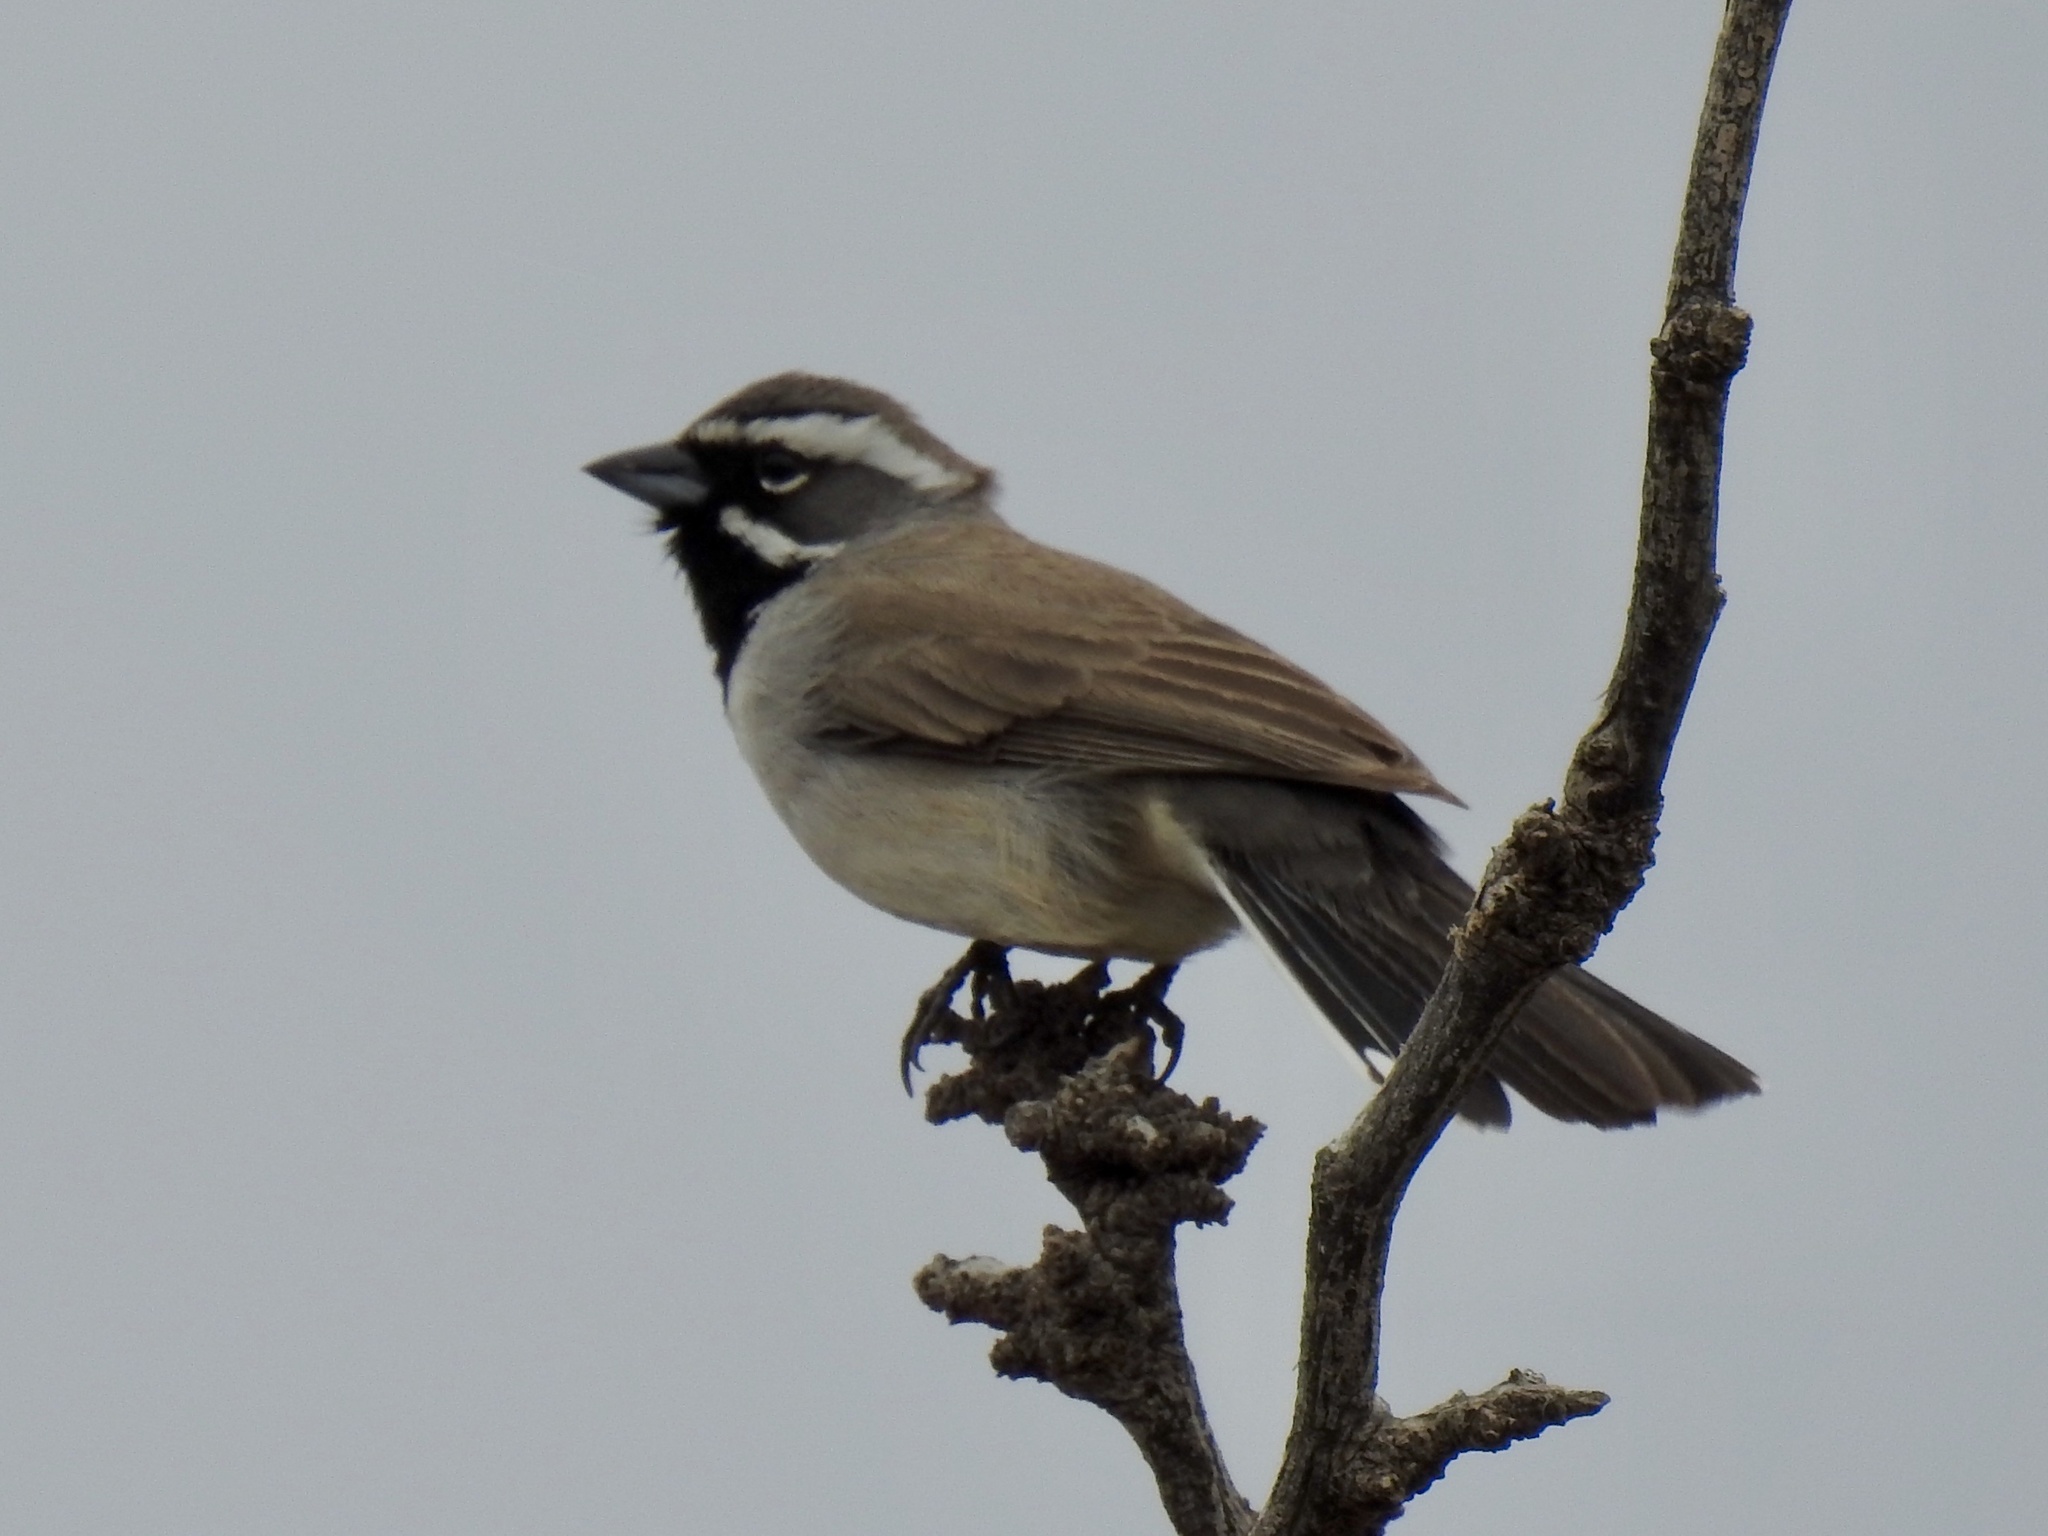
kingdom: Animalia
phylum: Chordata
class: Aves
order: Passeriformes
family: Passerellidae
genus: Amphispiza
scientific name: Amphispiza bilineata
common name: Black-throated sparrow
